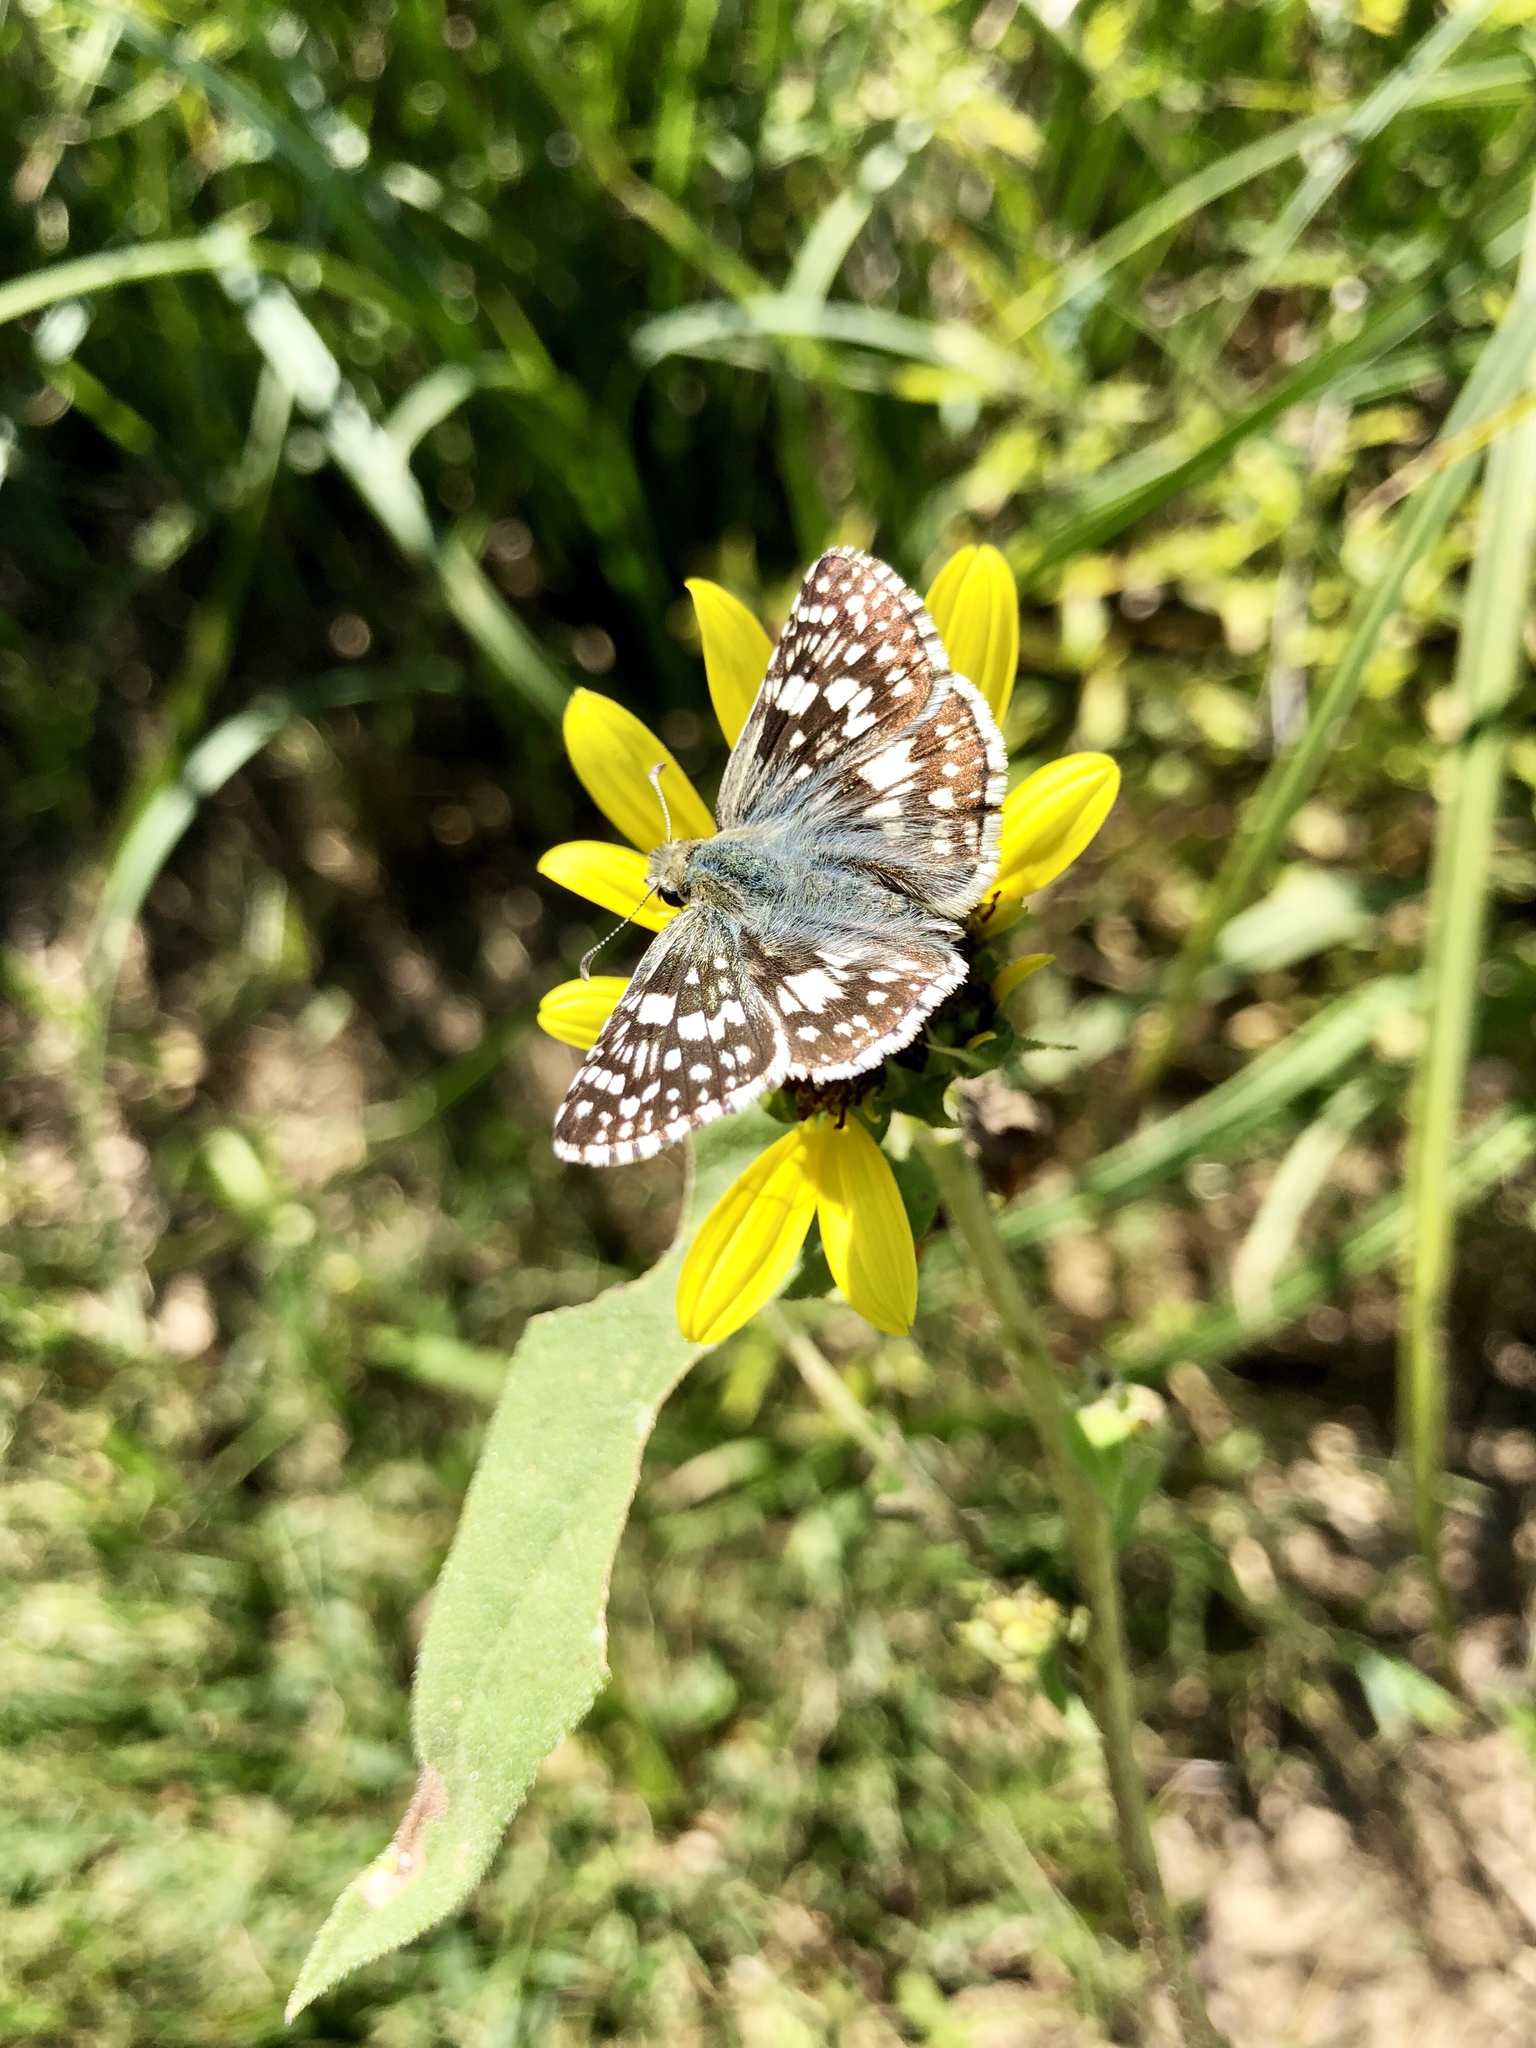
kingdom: Animalia
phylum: Arthropoda
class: Insecta
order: Lepidoptera
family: Hesperiidae
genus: Burnsius
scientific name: Burnsius communis
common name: Common checkered-skipper
